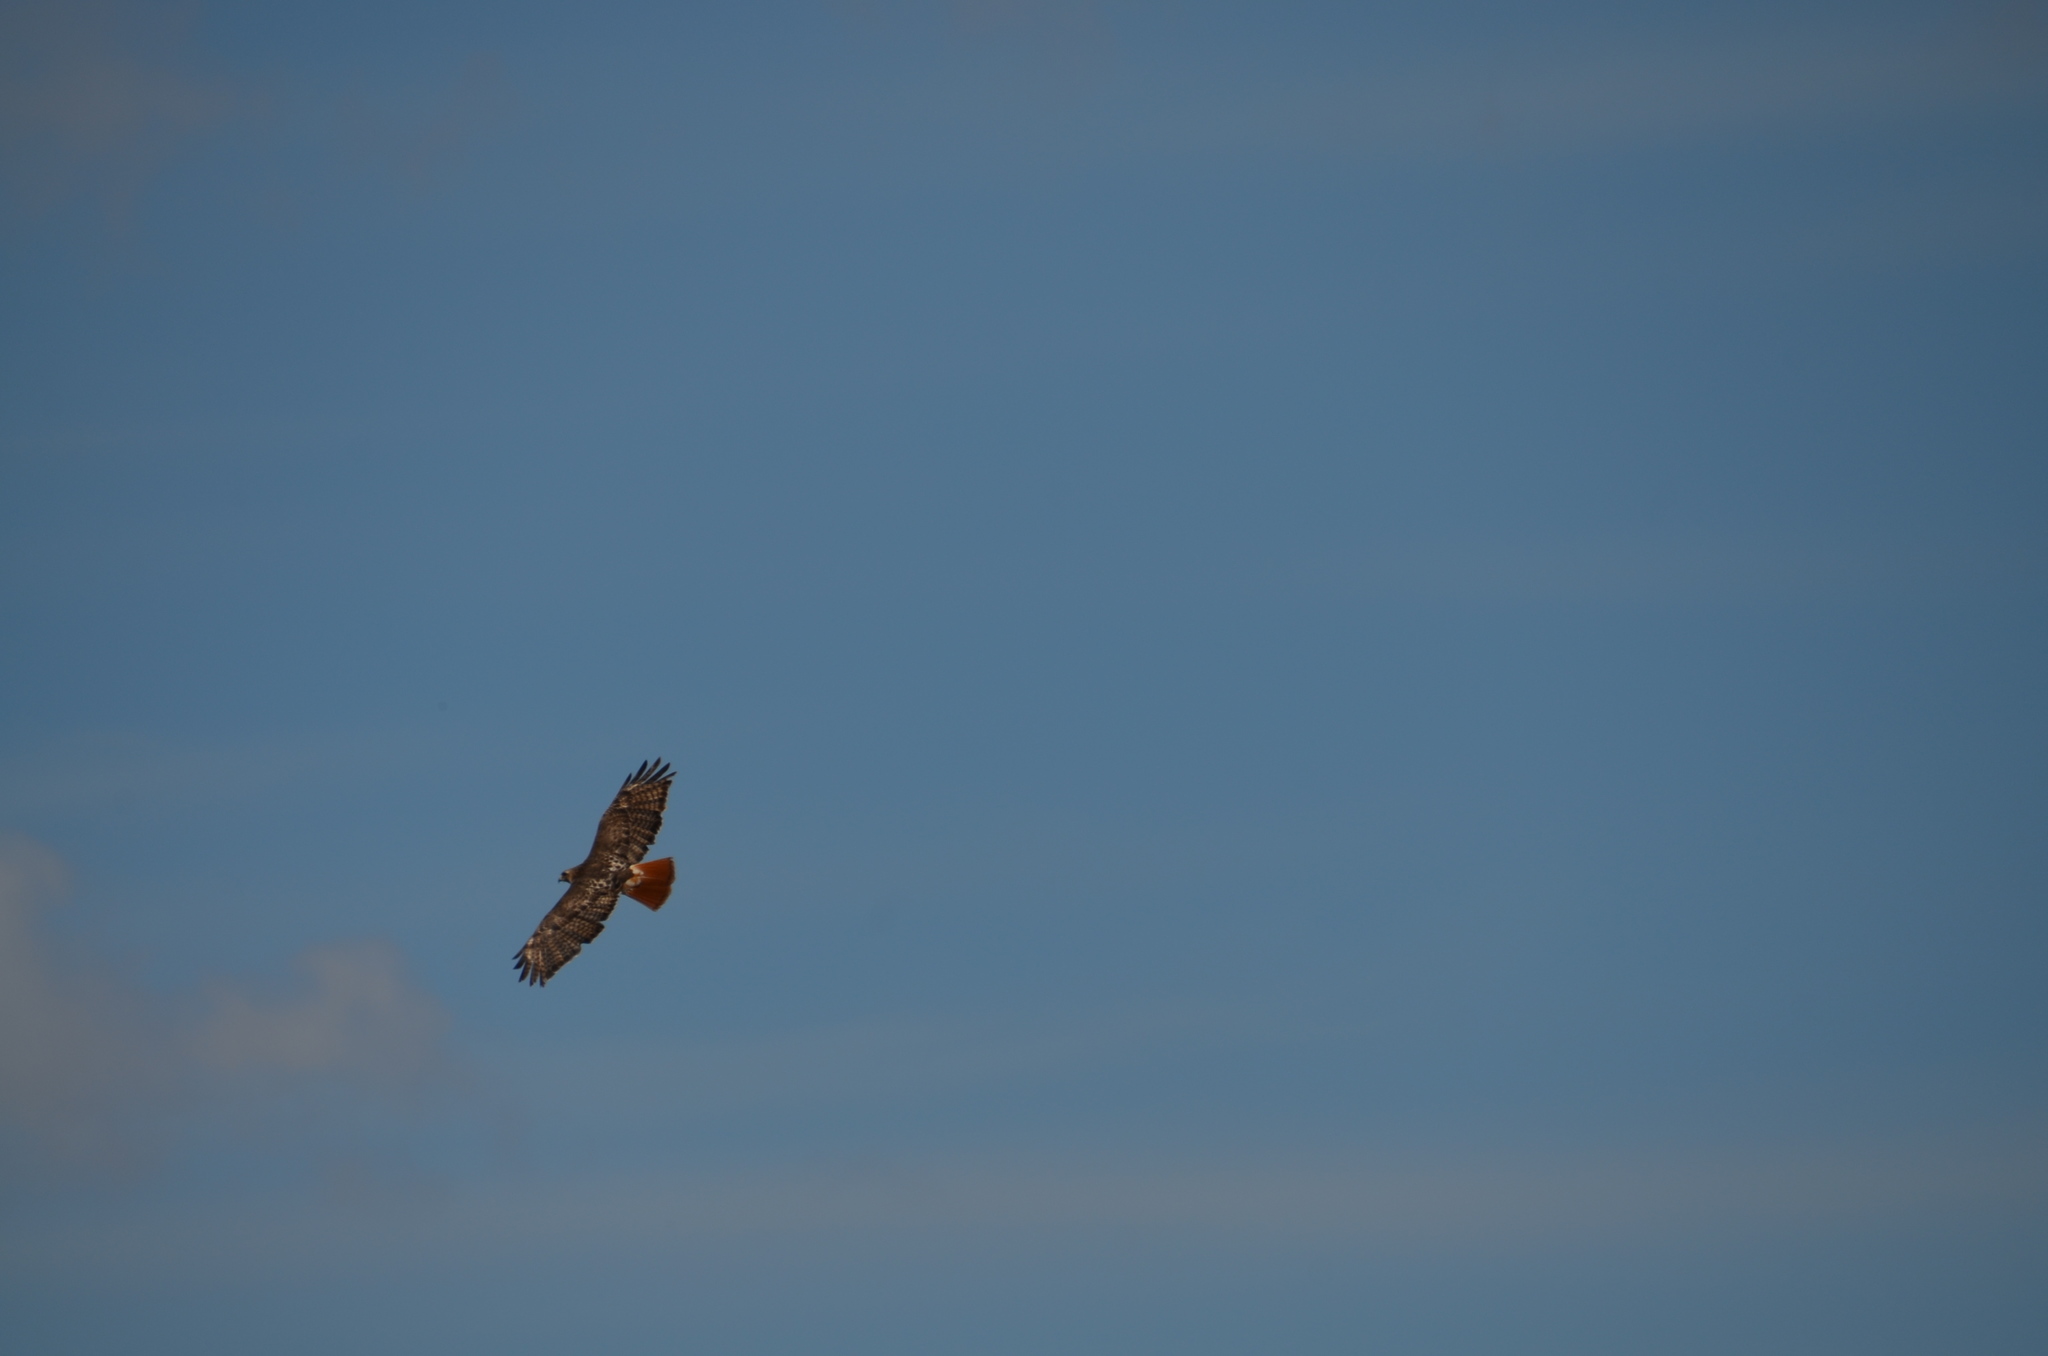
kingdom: Animalia
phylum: Chordata
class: Aves
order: Accipitriformes
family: Accipitridae
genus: Buteo
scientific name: Buteo jamaicensis
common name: Red-tailed hawk
